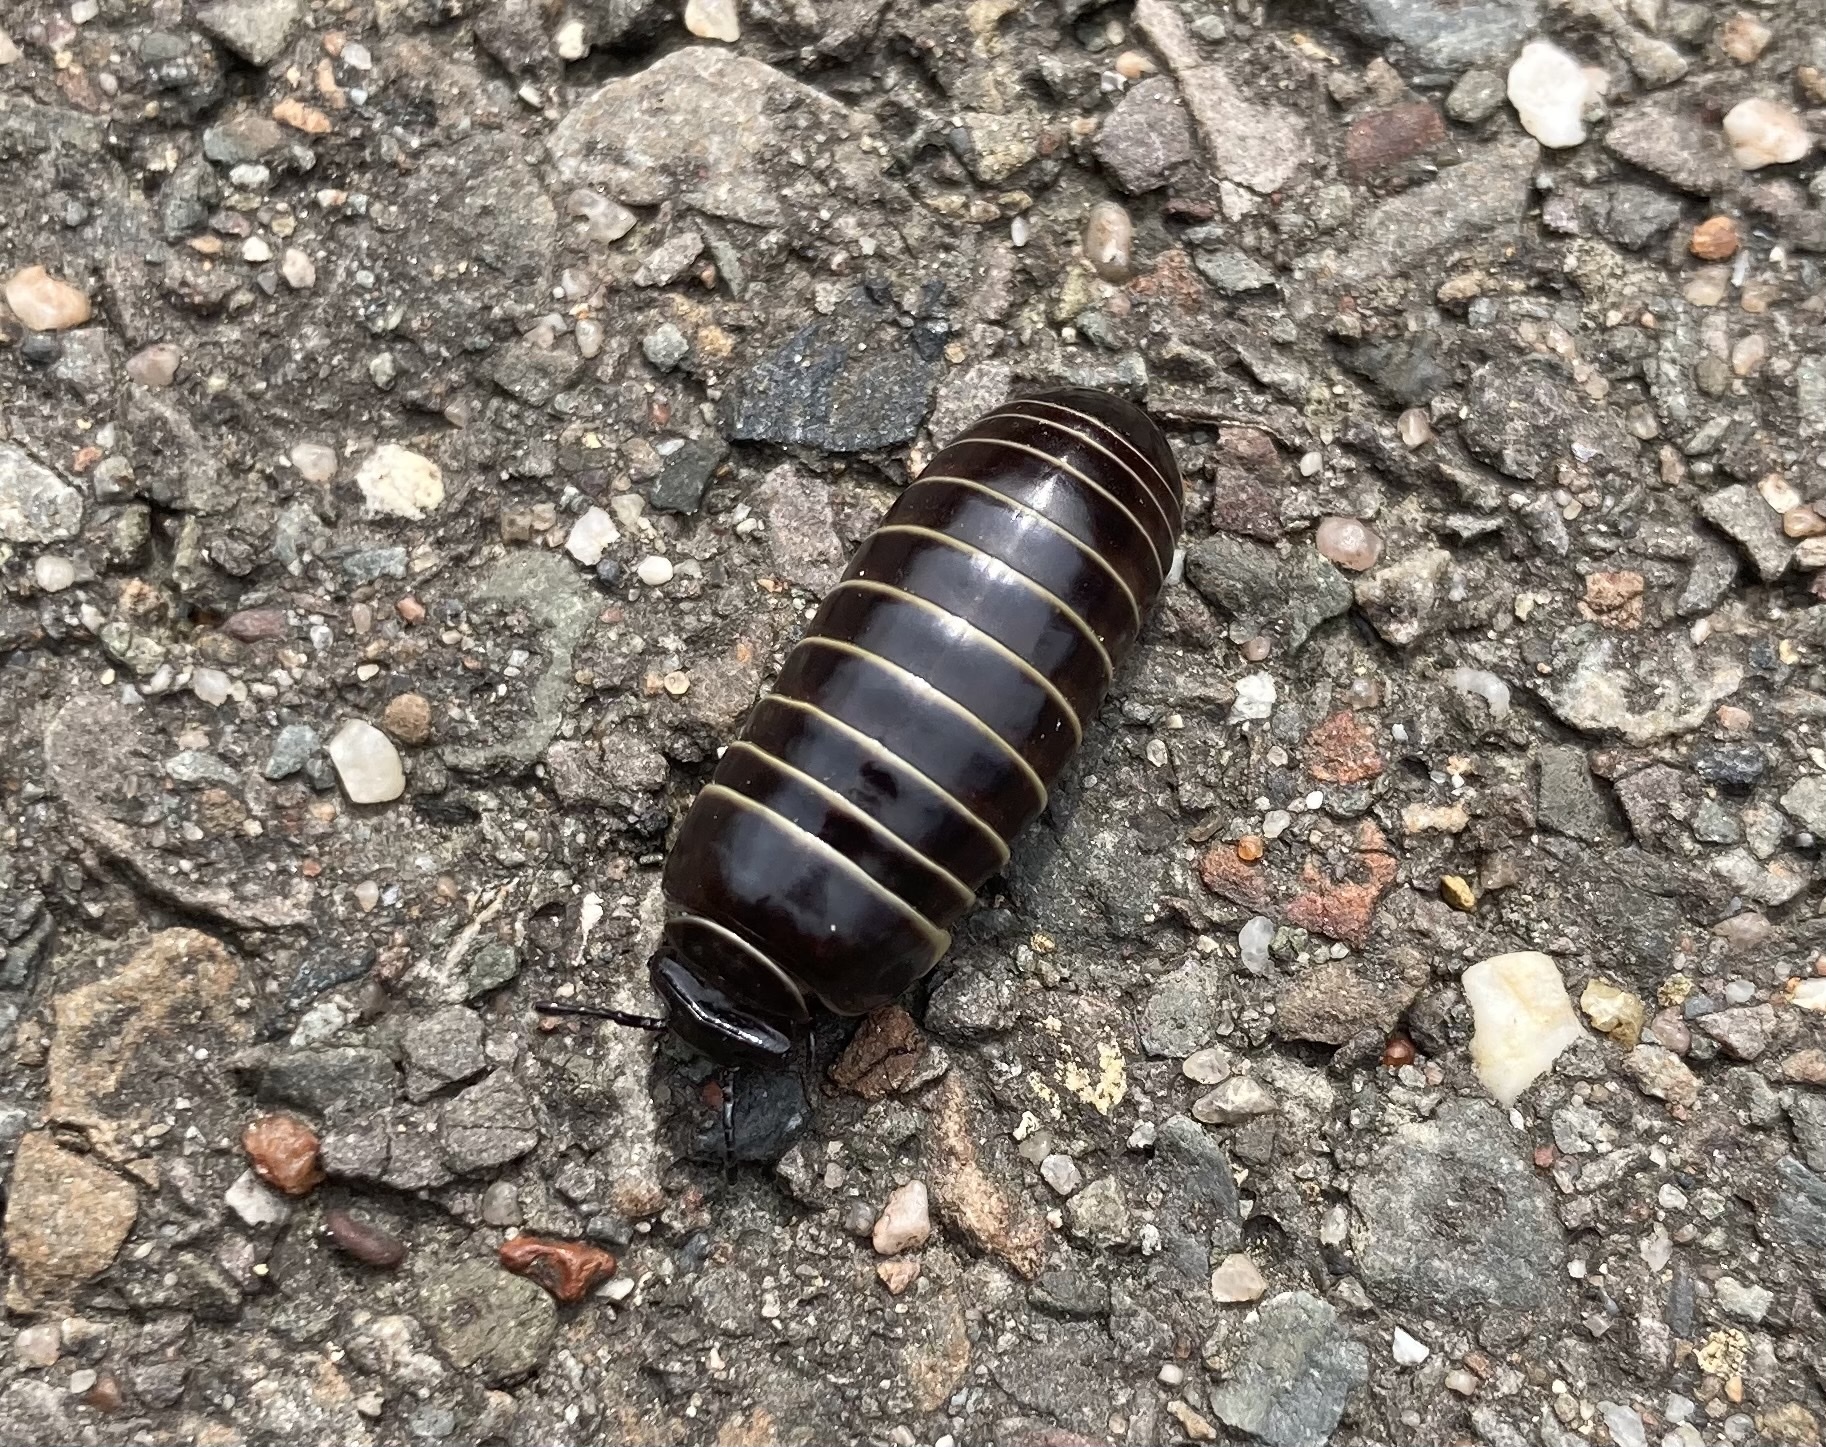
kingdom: Animalia
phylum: Arthropoda
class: Diplopoda
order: Glomerida
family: Glomeridae
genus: Glomeris
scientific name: Glomeris marginata
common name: Bordered pill millipede
